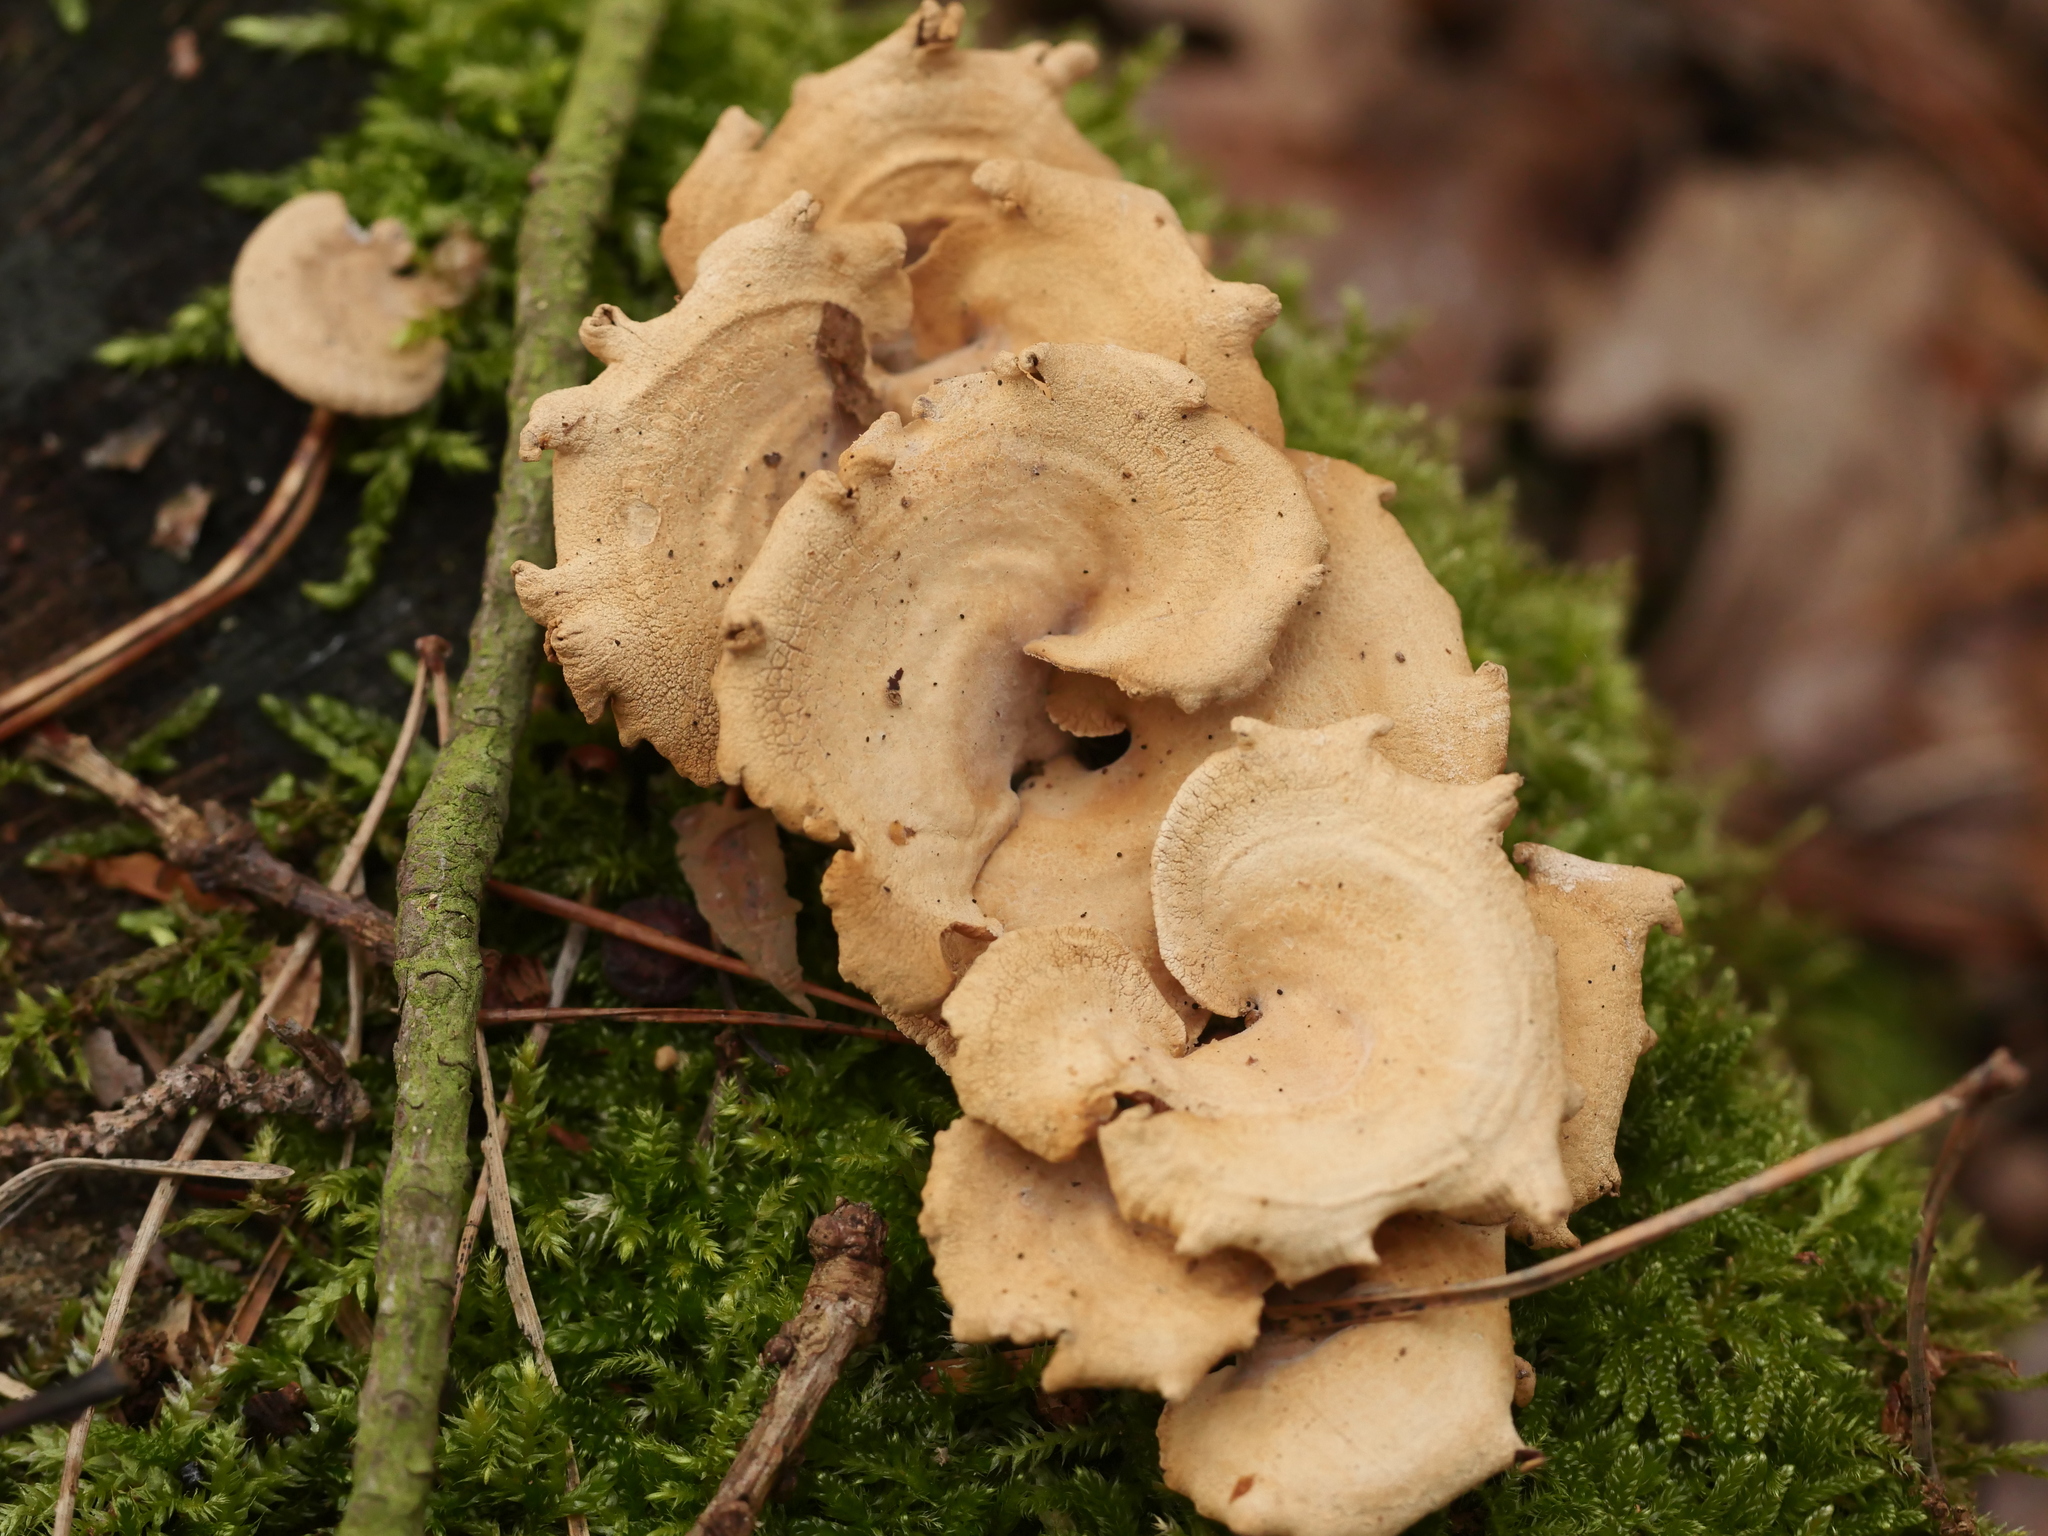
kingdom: Fungi
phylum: Basidiomycota
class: Agaricomycetes
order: Agaricales
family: Mycenaceae
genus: Panellus
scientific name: Panellus stipticus
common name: Bitter oysterling
